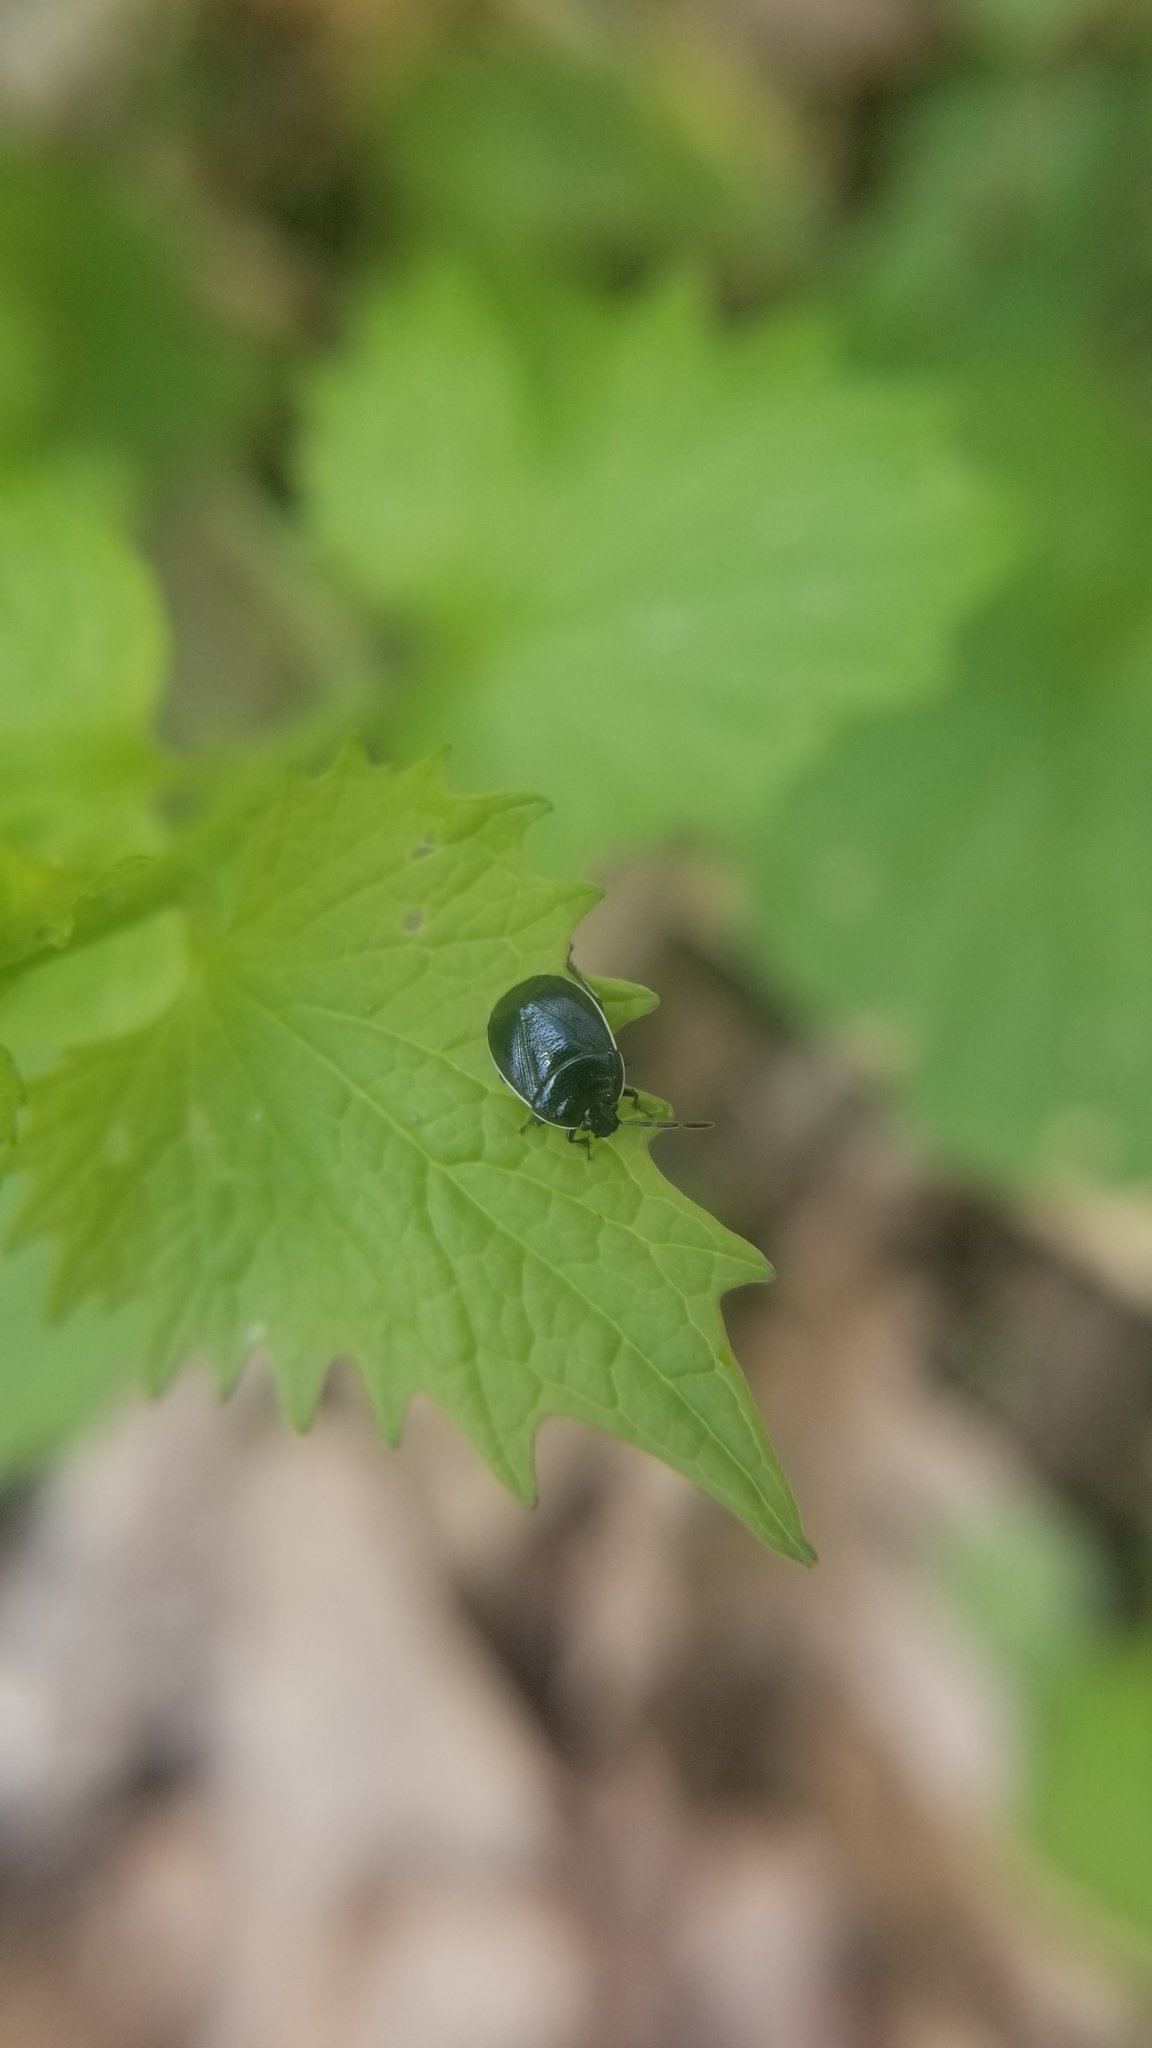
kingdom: Animalia
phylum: Arthropoda
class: Insecta
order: Hemiptera
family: Cydnidae
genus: Sehirus
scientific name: Sehirus cinctus
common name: White-margined burrower bug
